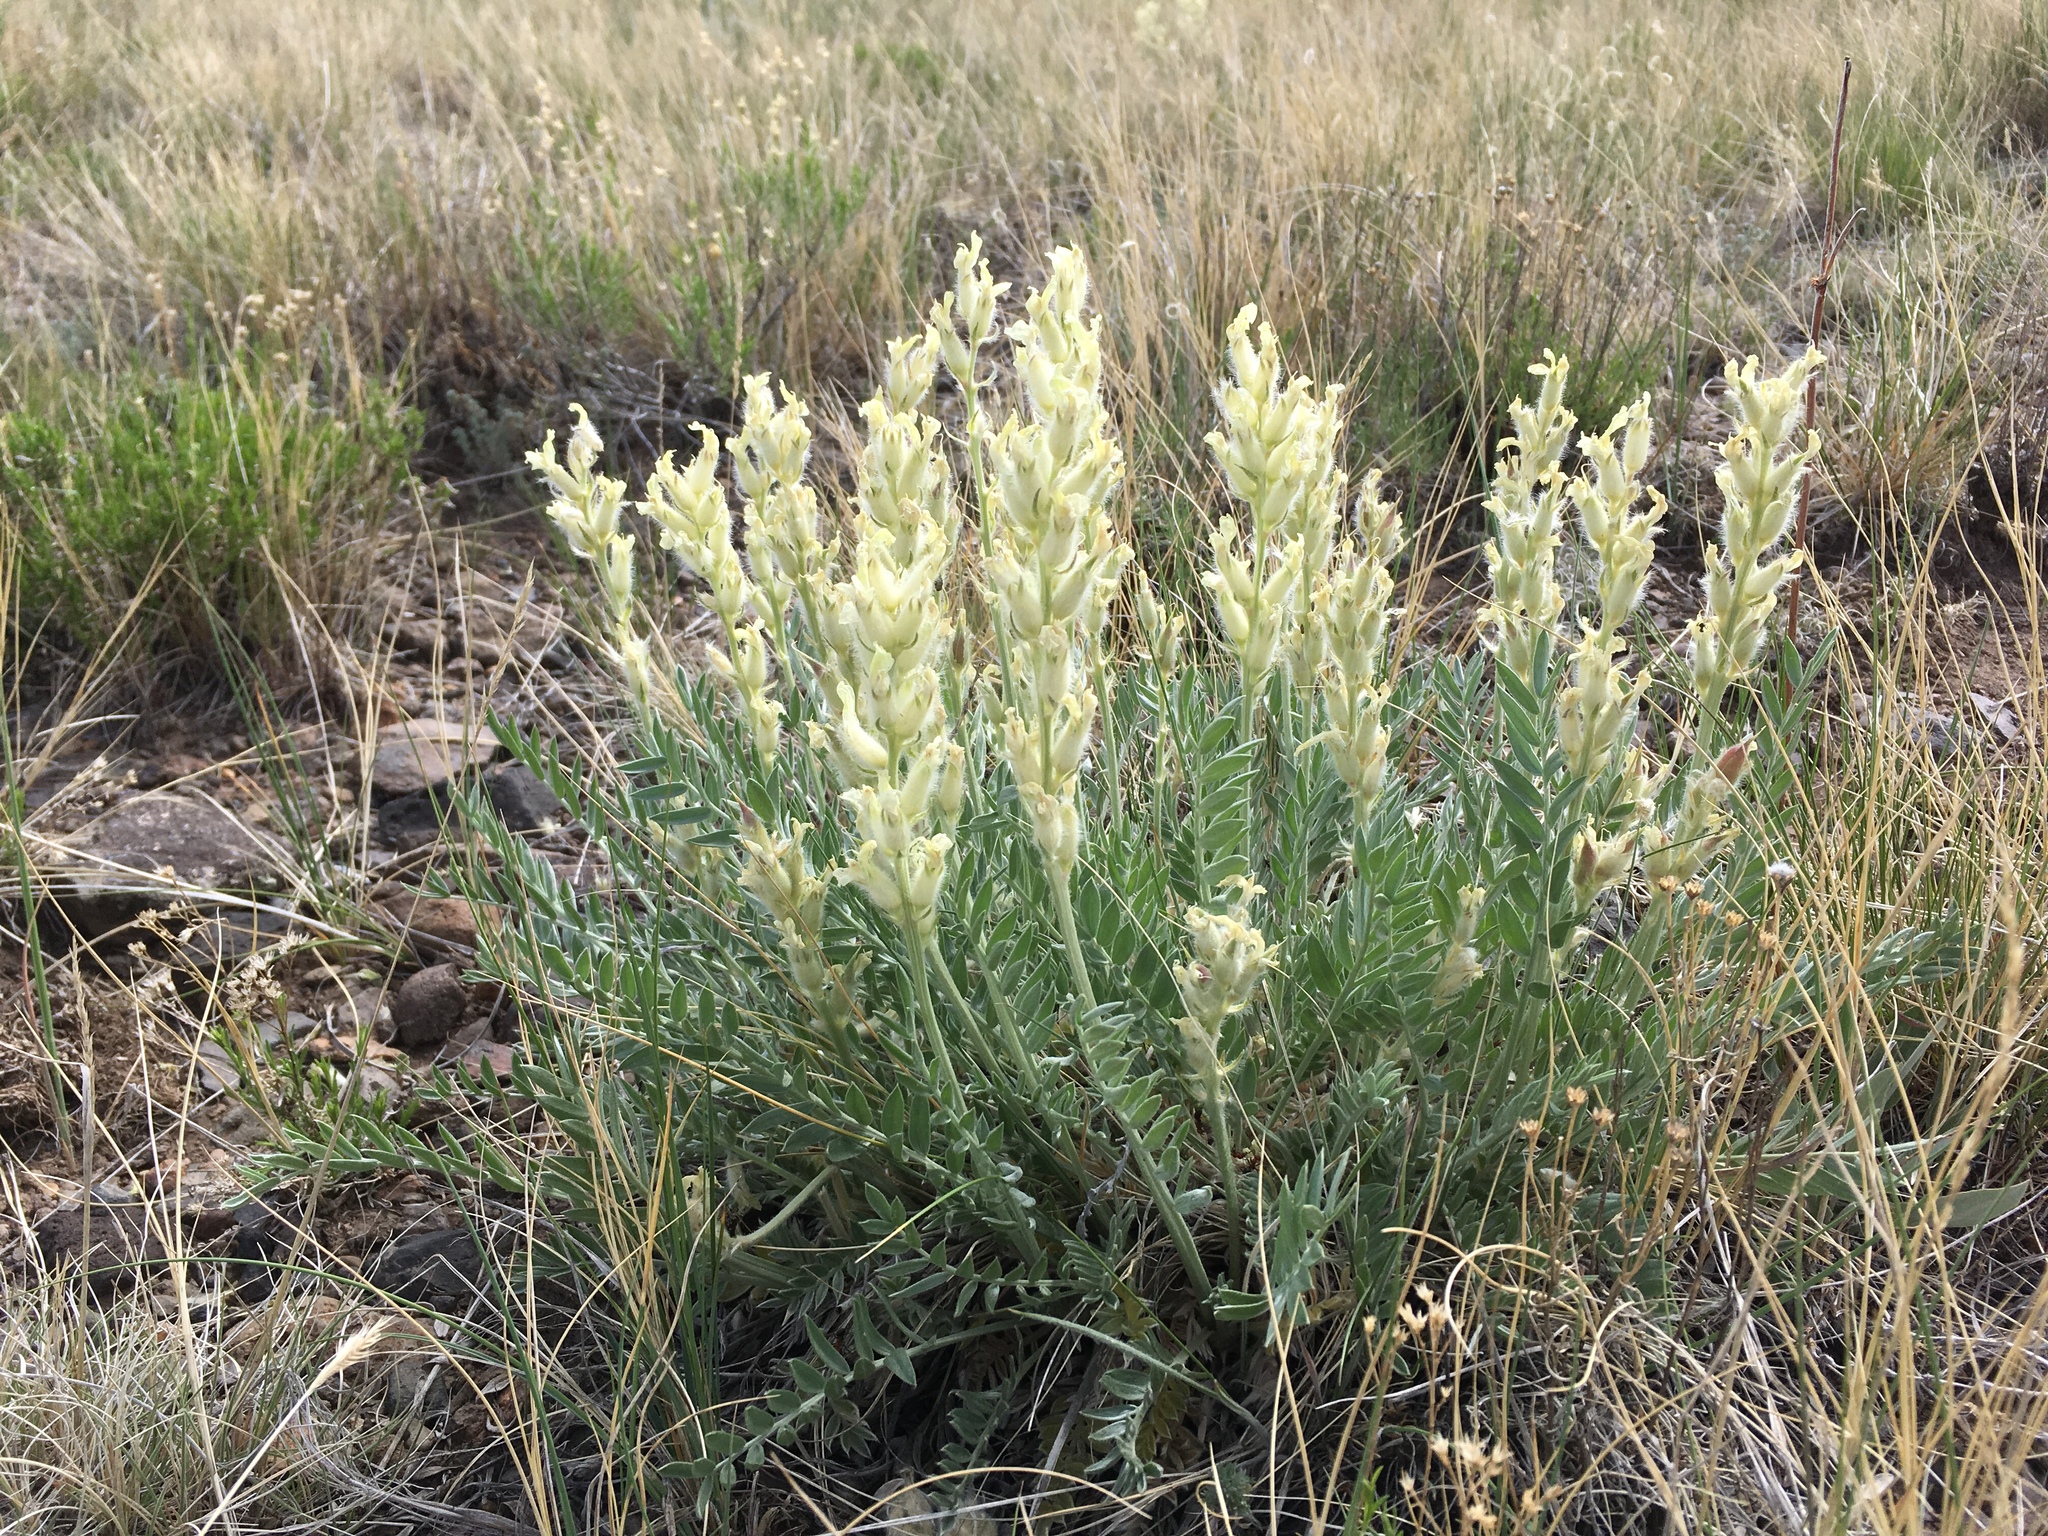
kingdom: Plantae
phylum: Tracheophyta
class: Magnoliopsida
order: Fabales
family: Fabaceae
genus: Oxytropis
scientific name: Oxytropis sericea
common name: Silky locoweed
